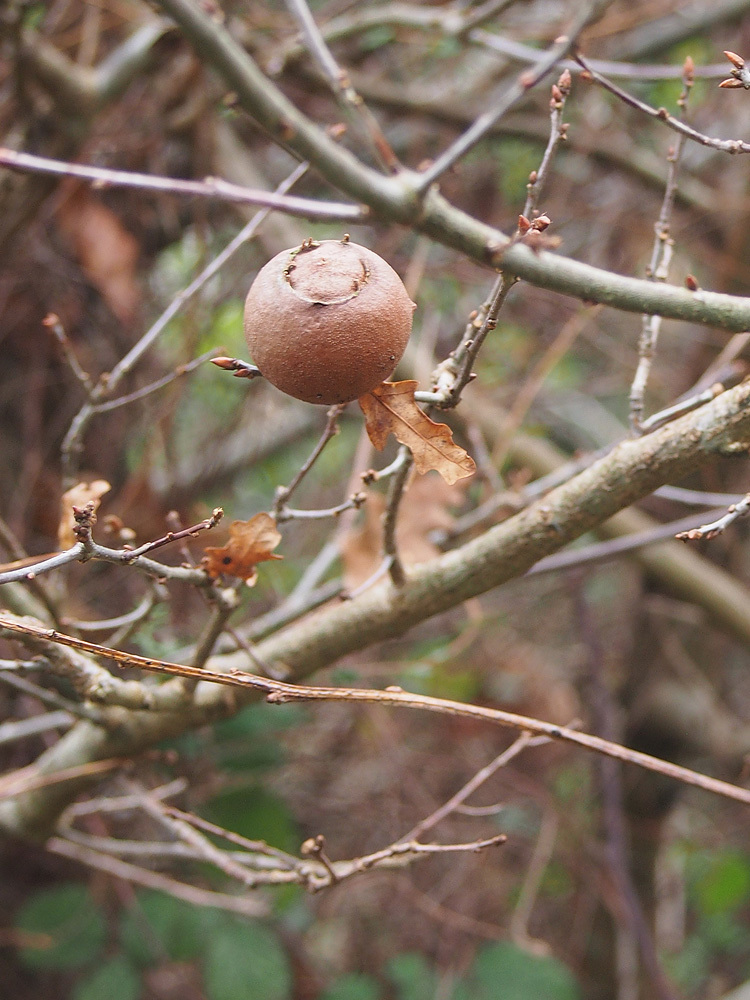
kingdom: Animalia
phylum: Arthropoda
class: Insecta
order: Hymenoptera
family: Cynipidae
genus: Andricus
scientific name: Andricus quercustozae
